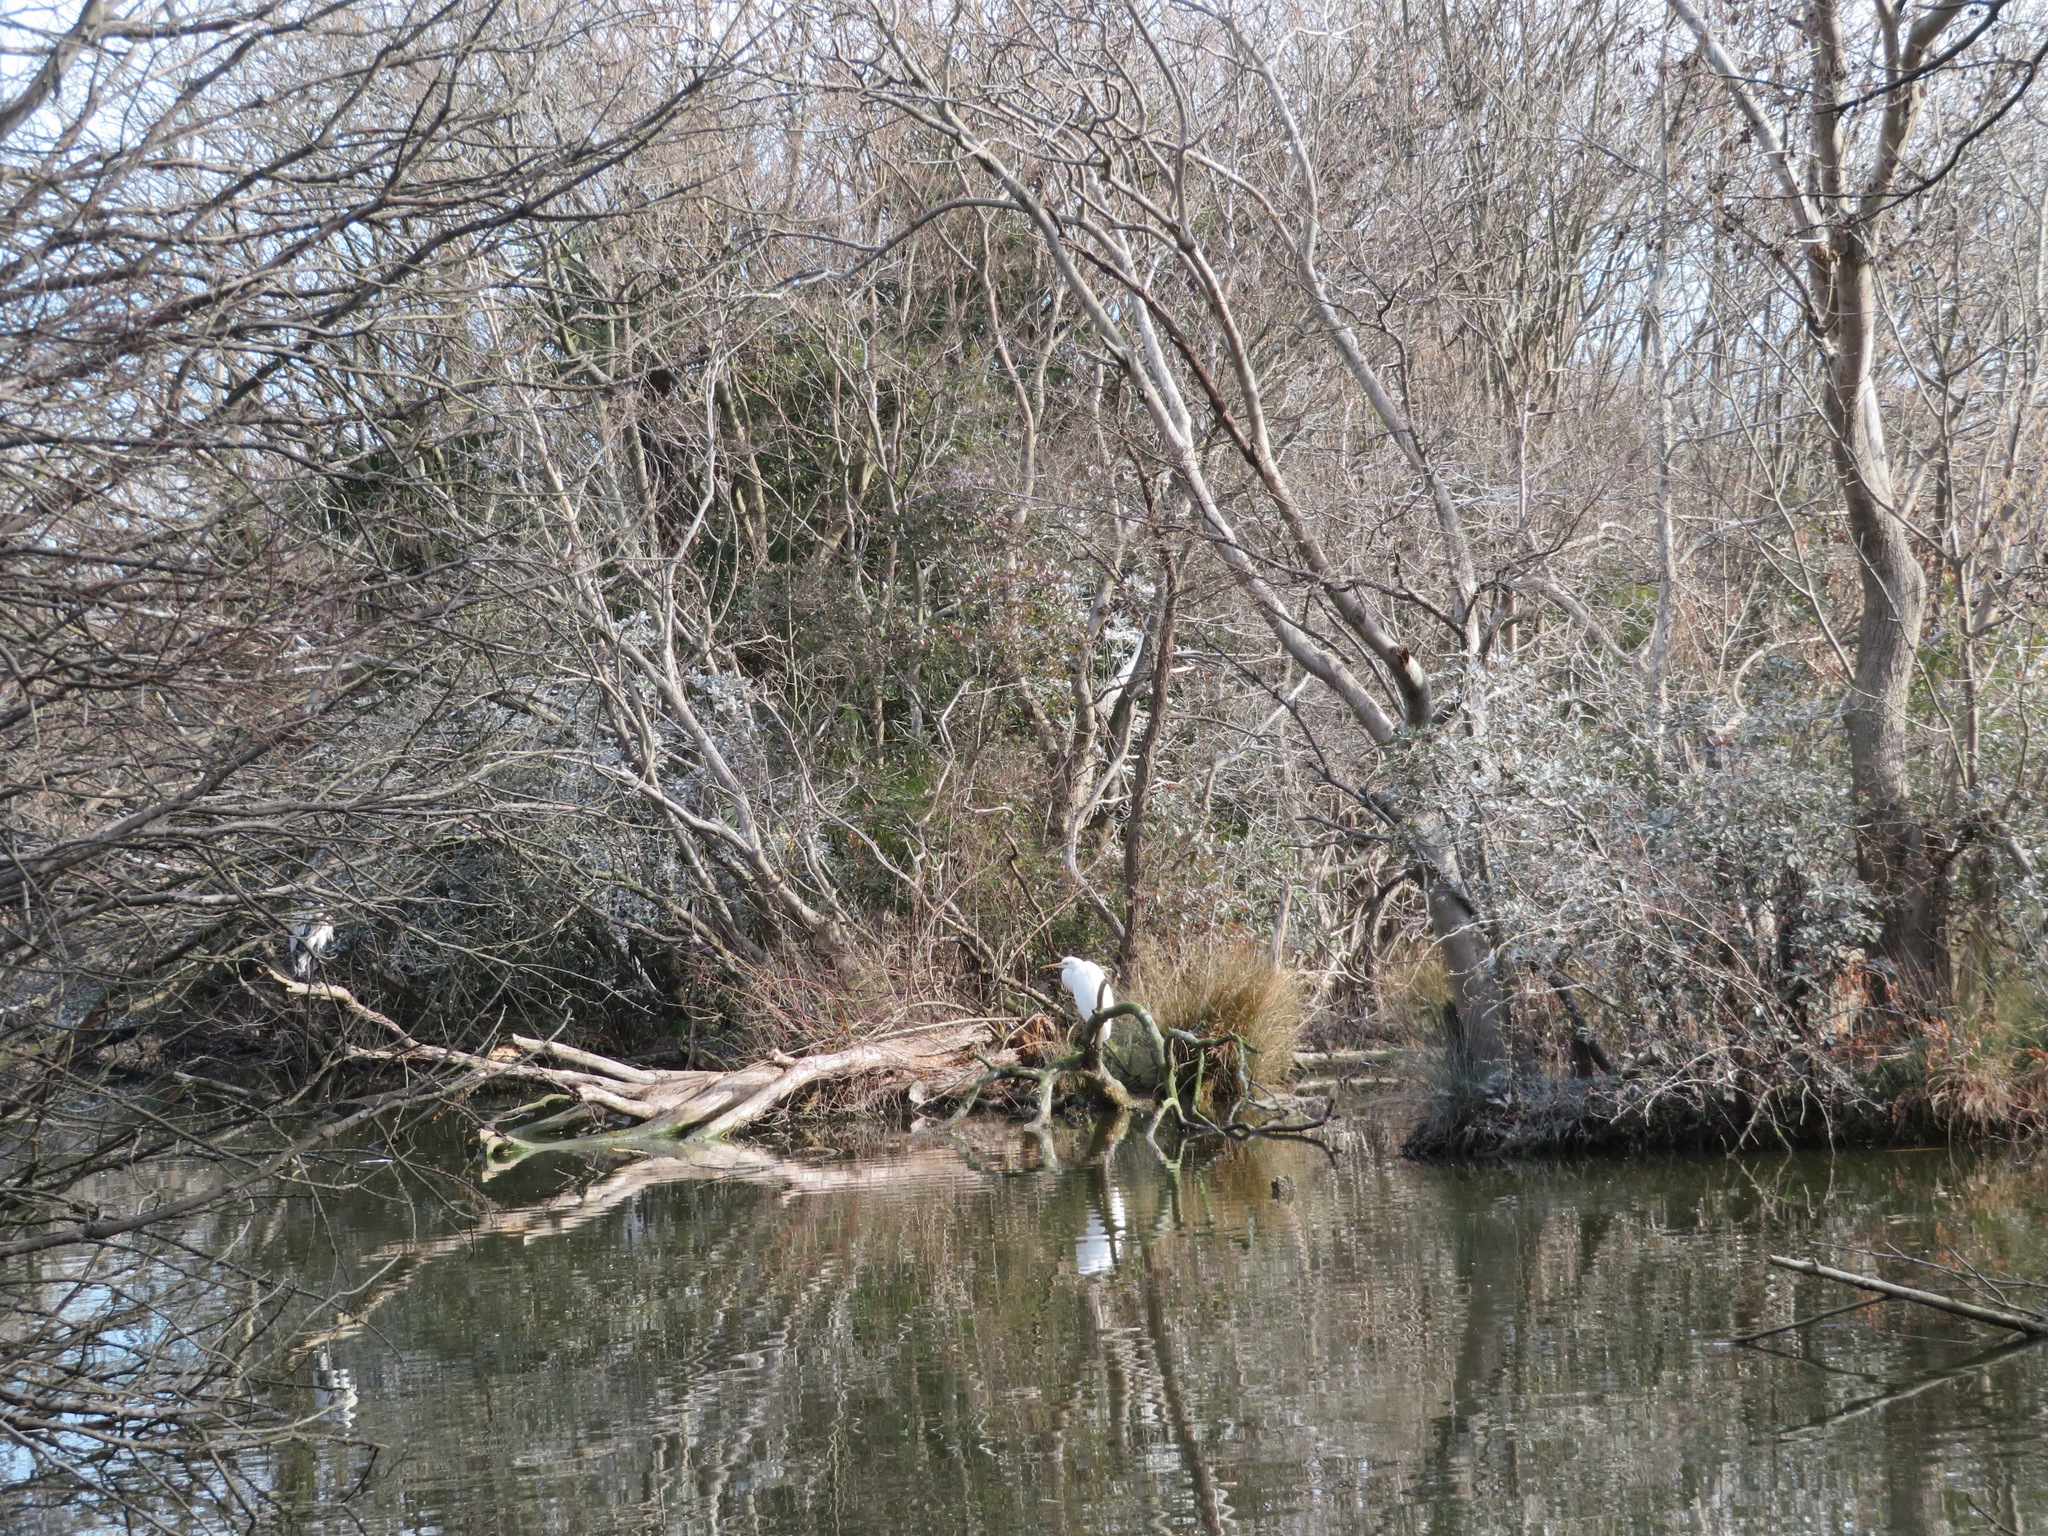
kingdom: Animalia
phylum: Chordata
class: Aves
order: Pelecaniformes
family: Ardeidae
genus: Ardea
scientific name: Ardea alba
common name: Great egret
